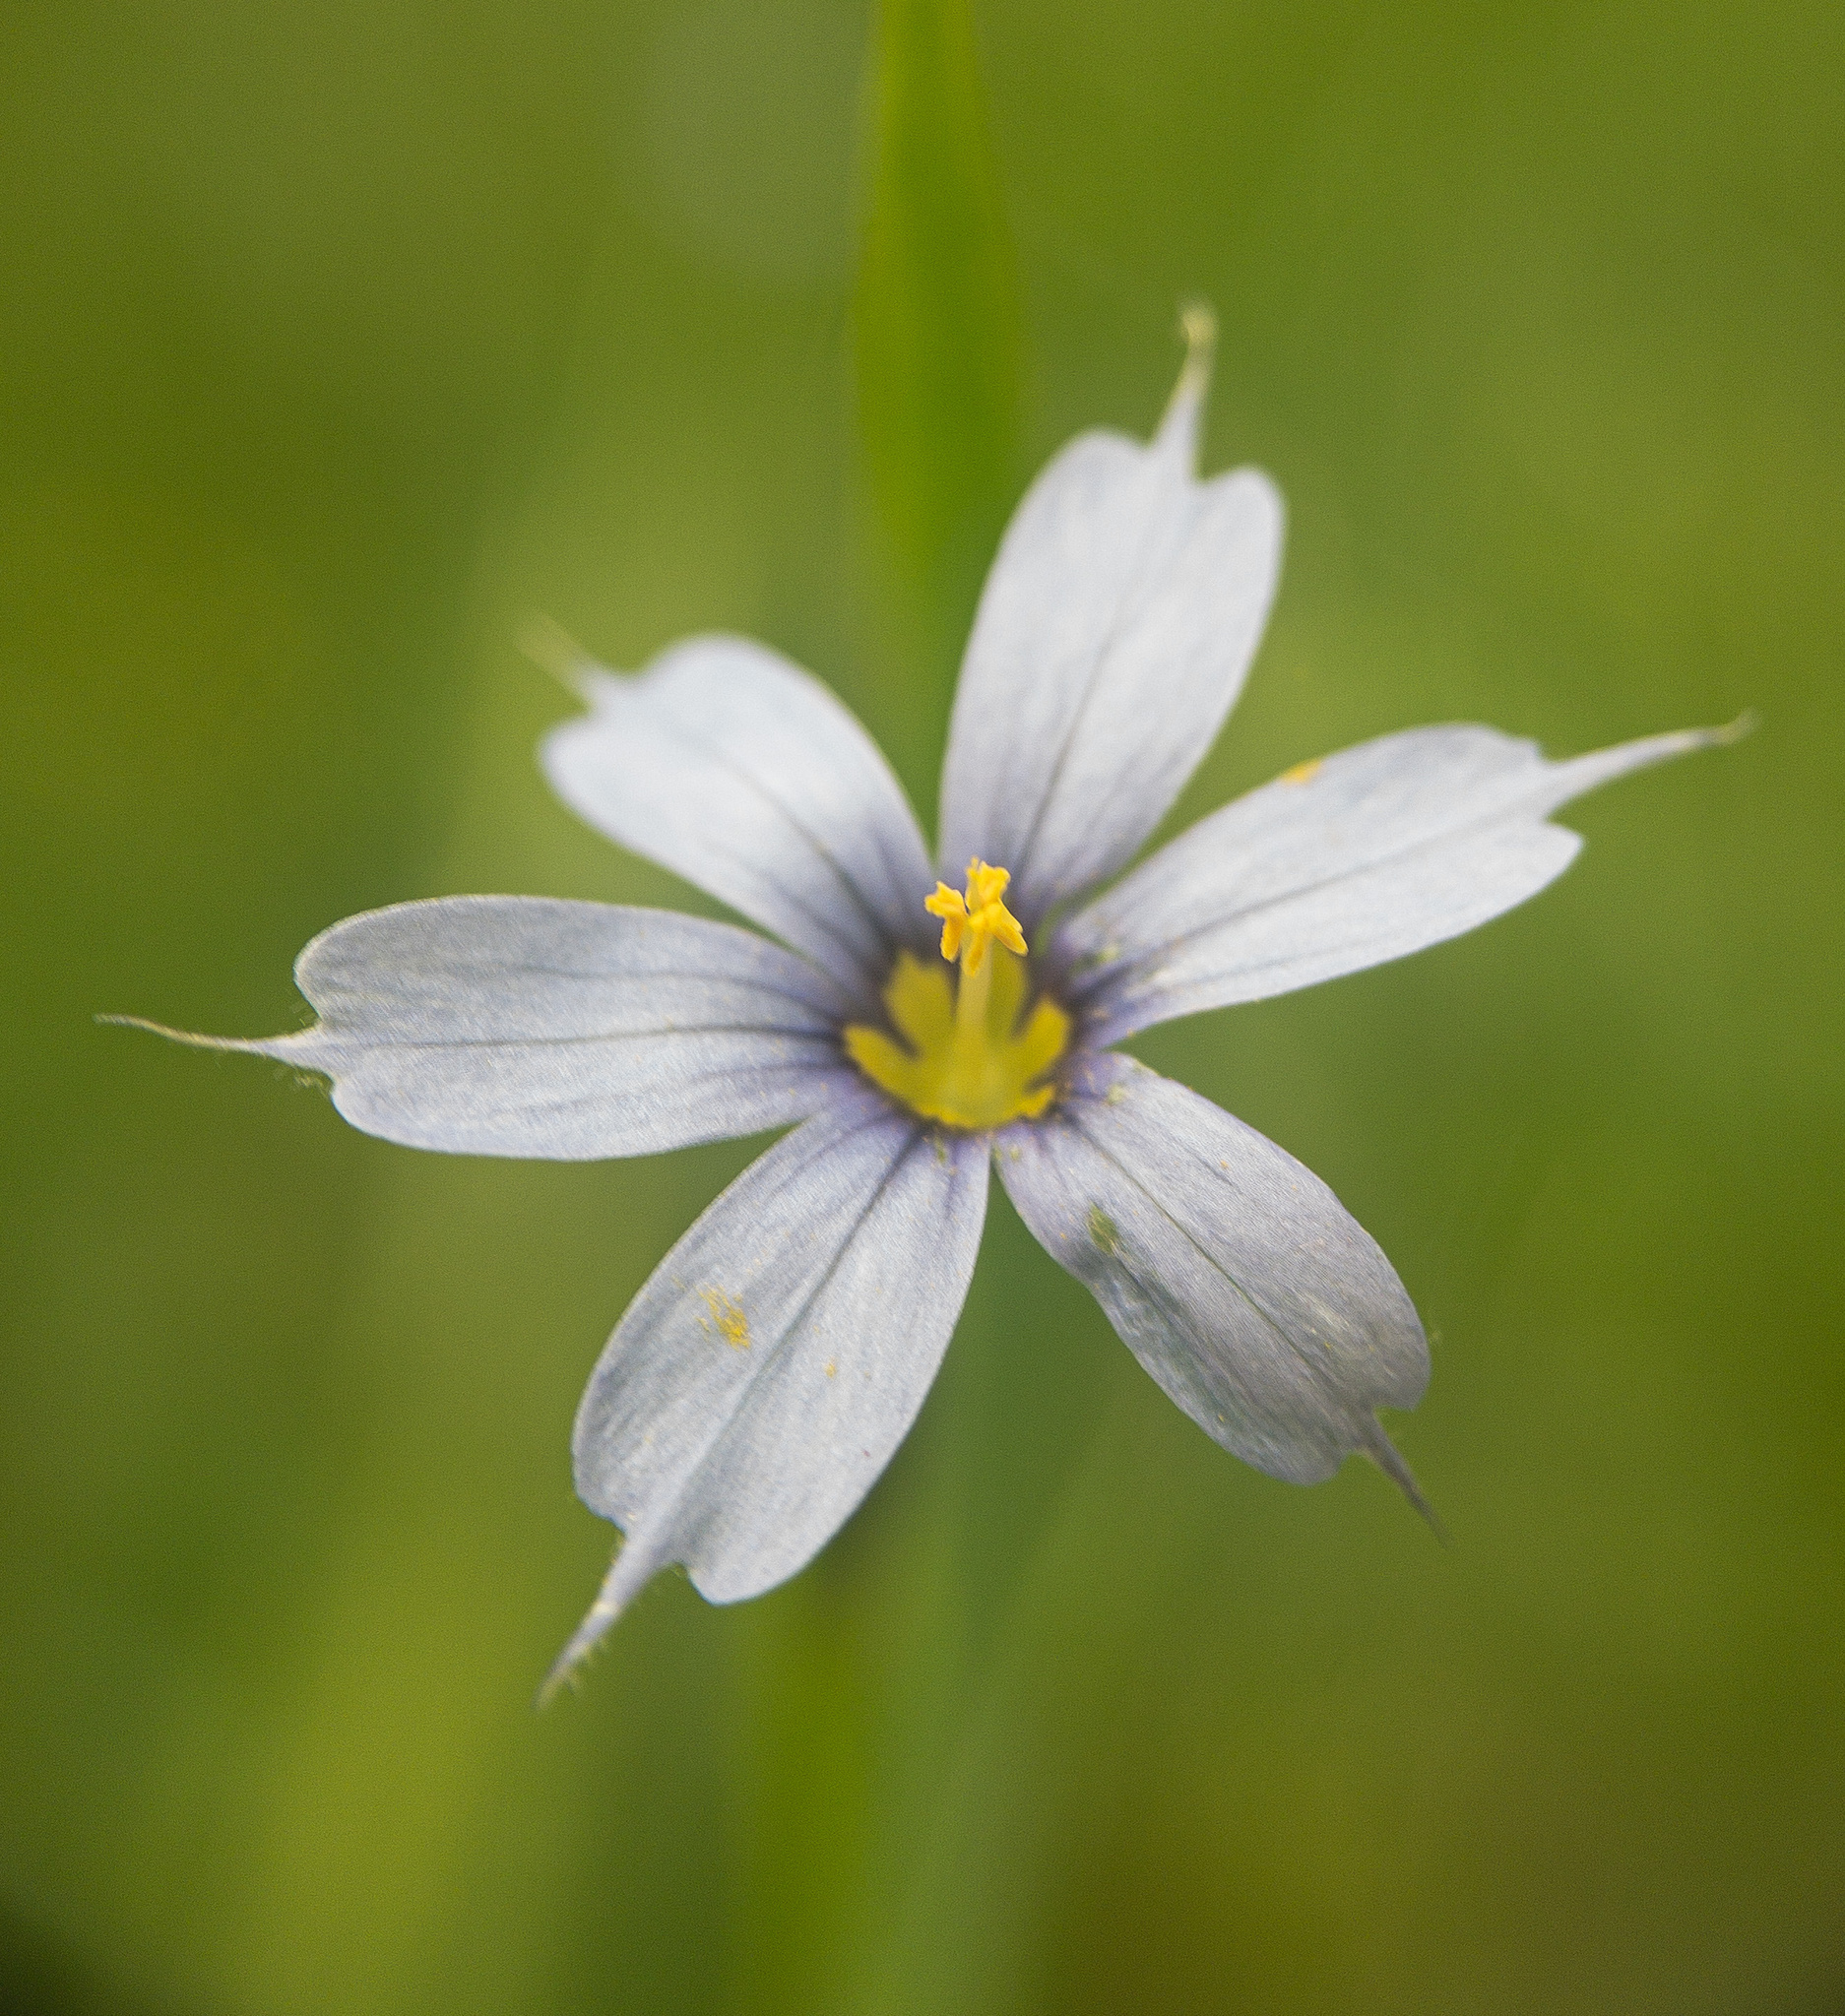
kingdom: Plantae
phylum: Tracheophyta
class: Liliopsida
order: Asparagales
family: Iridaceae
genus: Sisyrinchium
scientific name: Sisyrinchium angustifolium
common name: Narrow-leaf blue-eyed-grass
